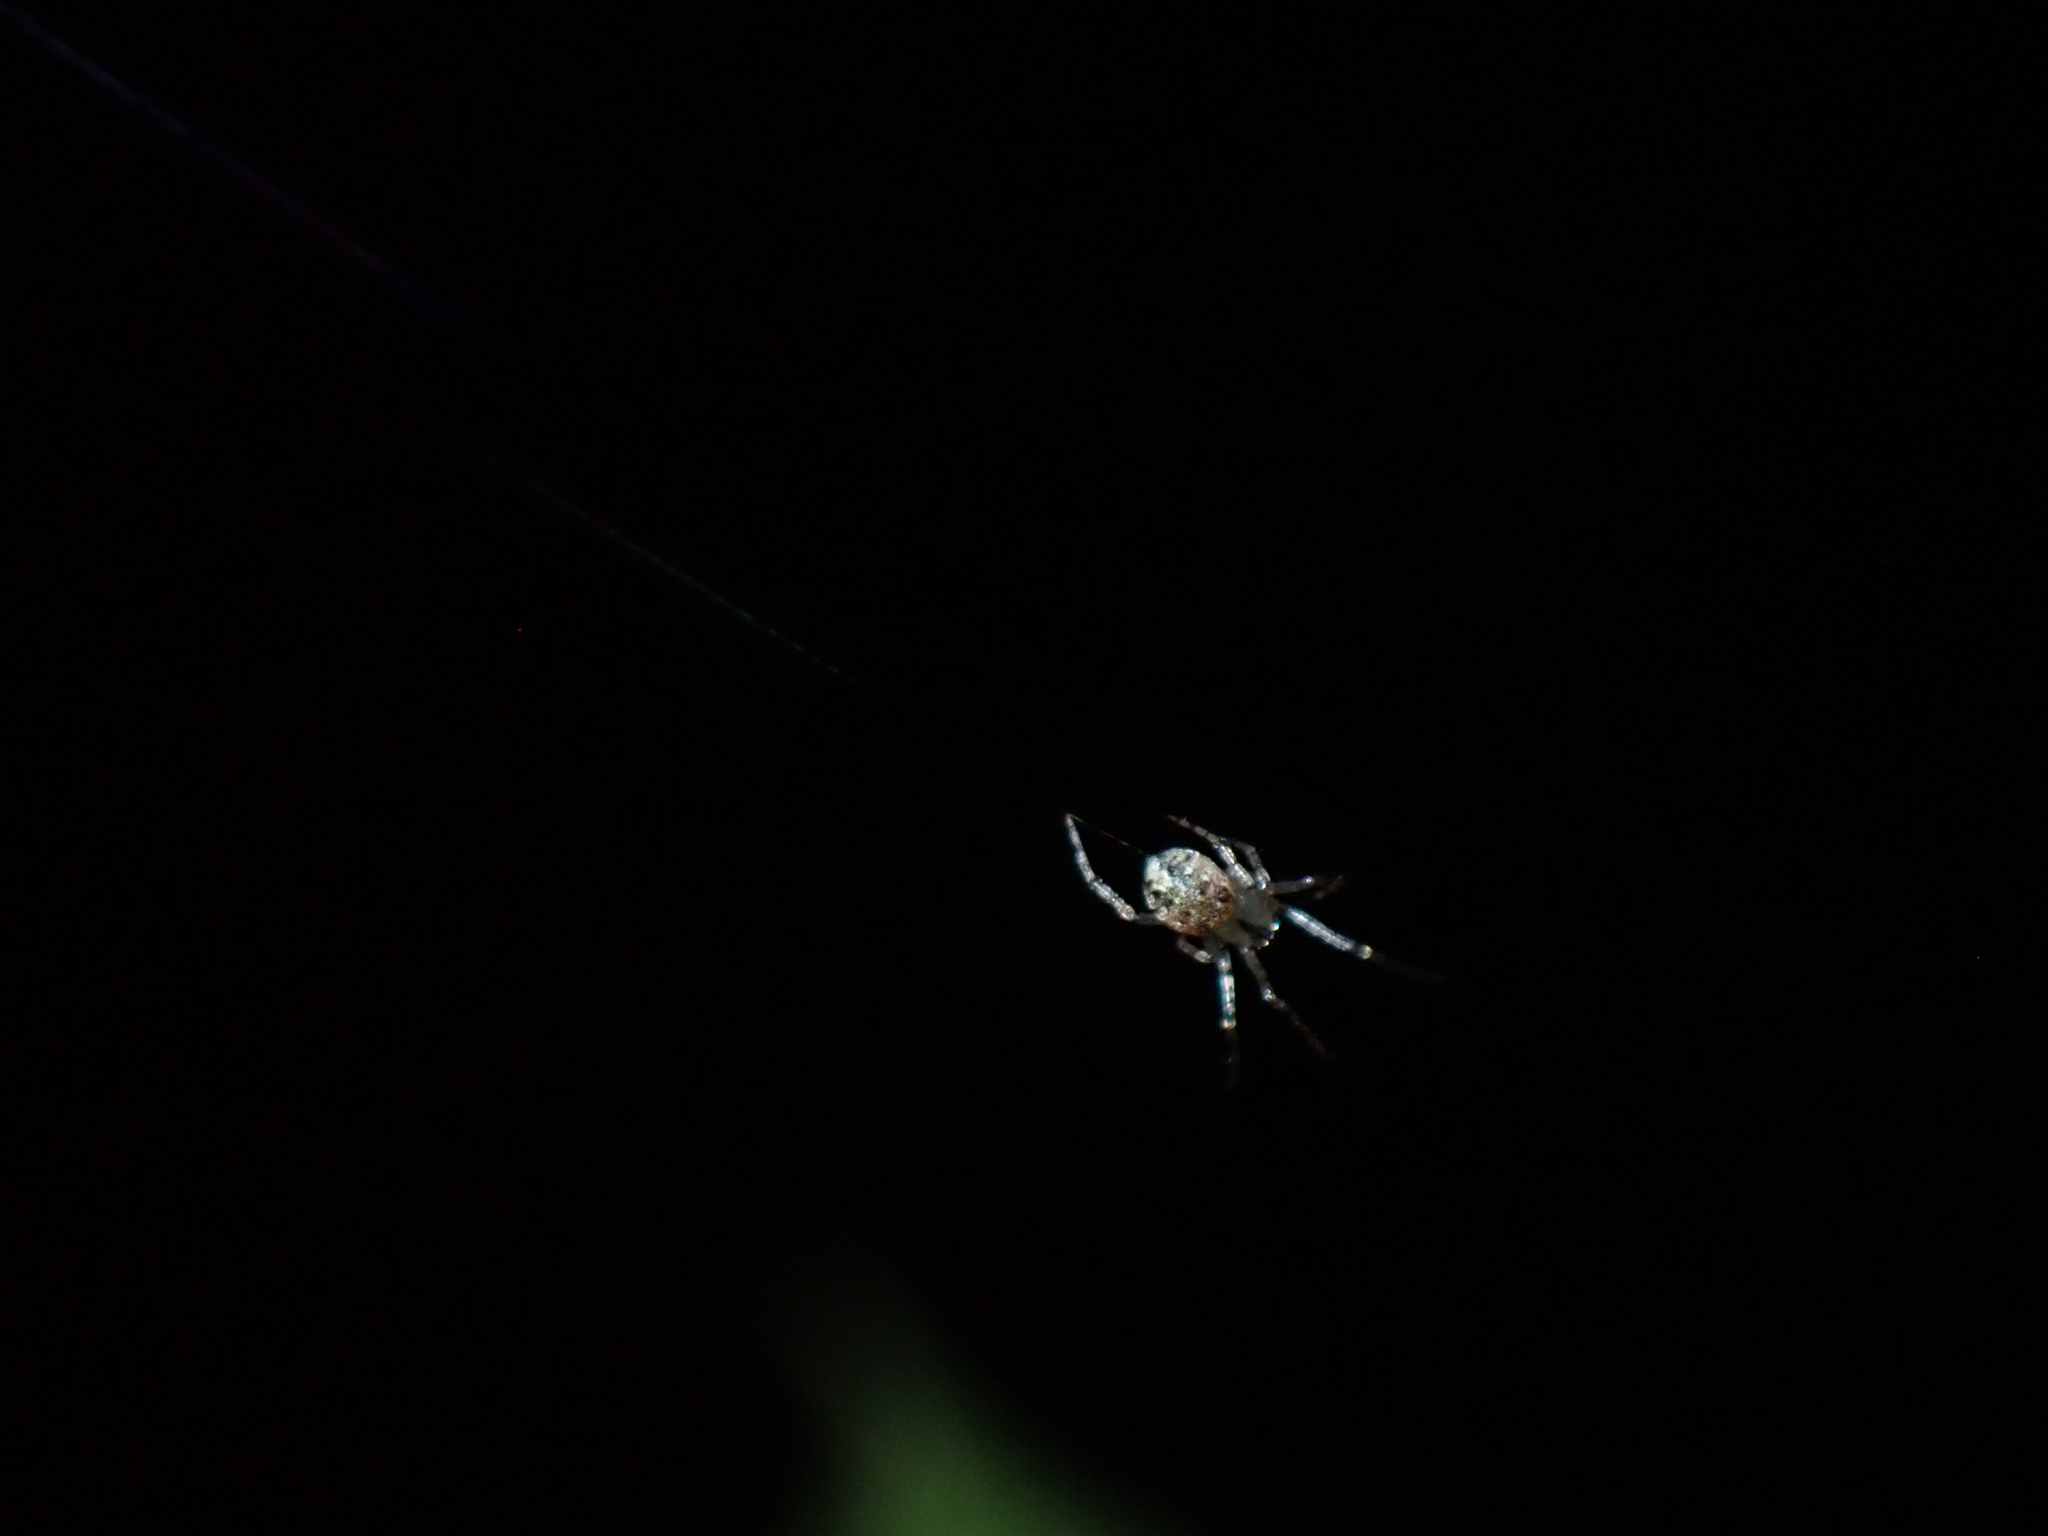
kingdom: Animalia
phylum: Arthropoda
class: Arachnida
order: Araneae
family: Theridiidae
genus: Platnickina
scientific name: Platnickina tincta
